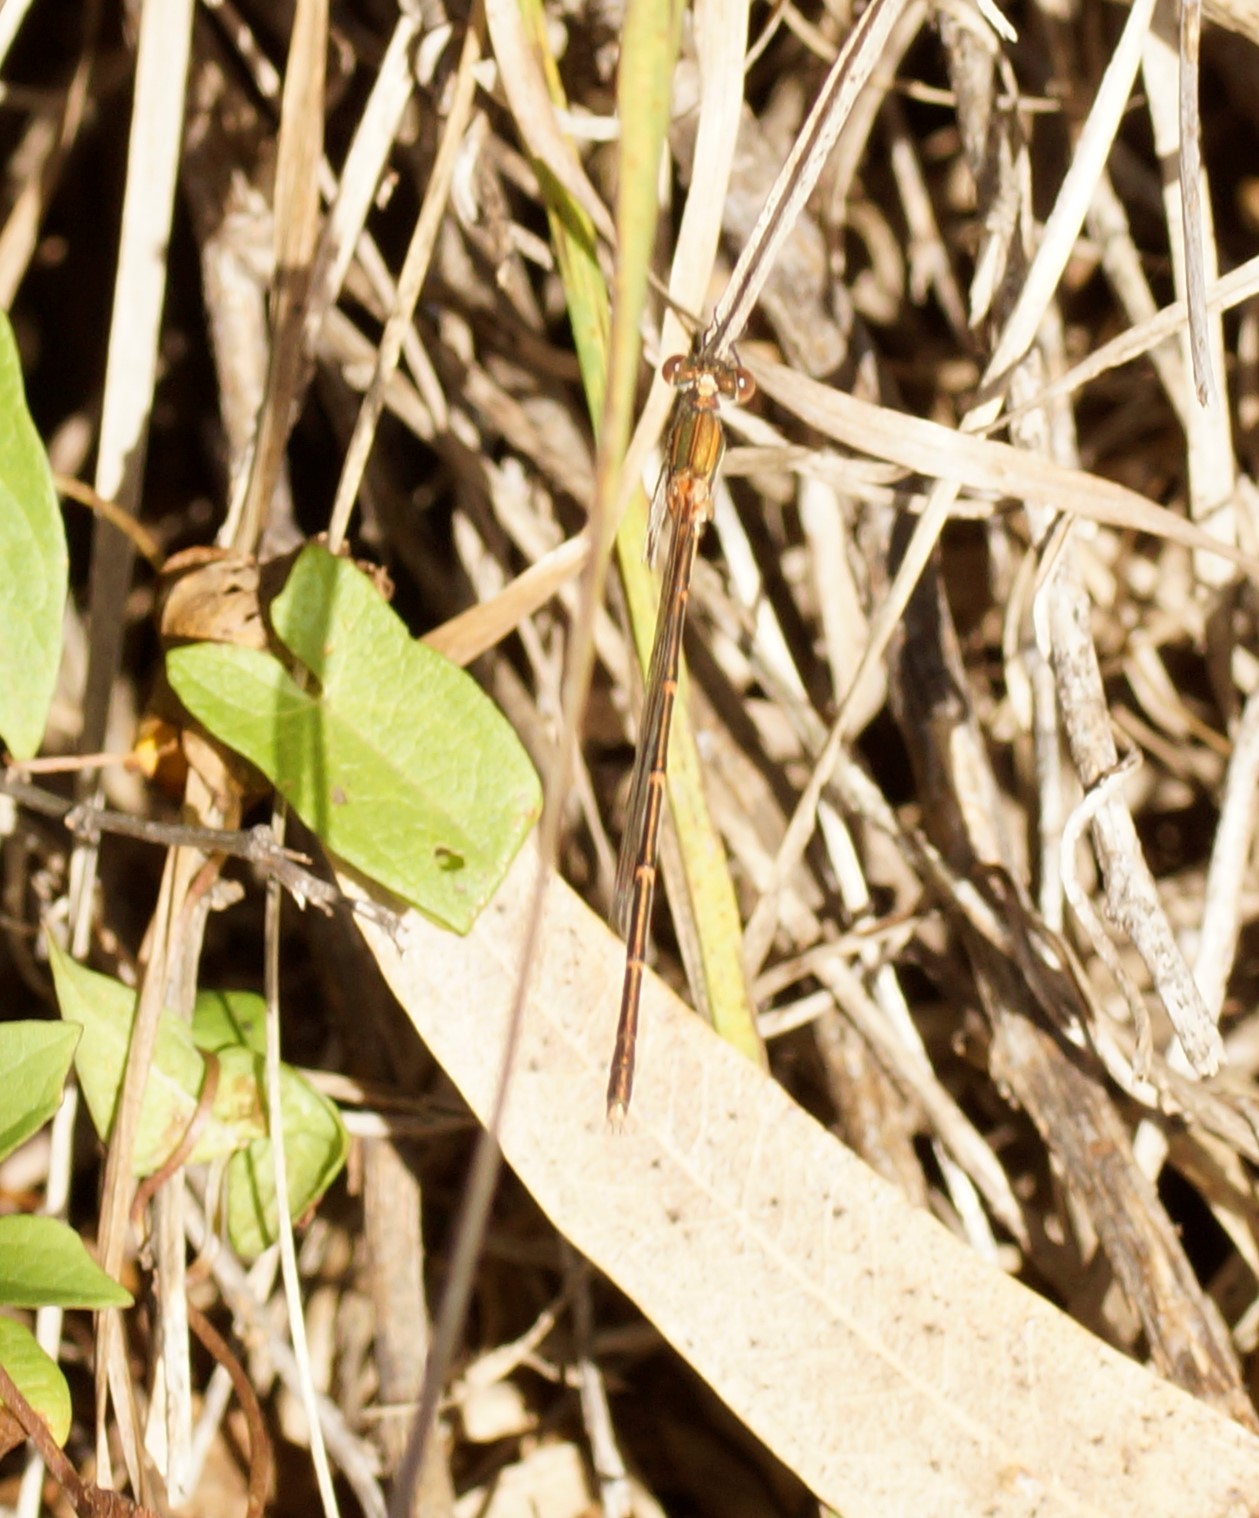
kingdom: Animalia
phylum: Arthropoda
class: Insecta
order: Odonata
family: Lestidae
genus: Austrolestes
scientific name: Austrolestes analis
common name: Slender ringtail
